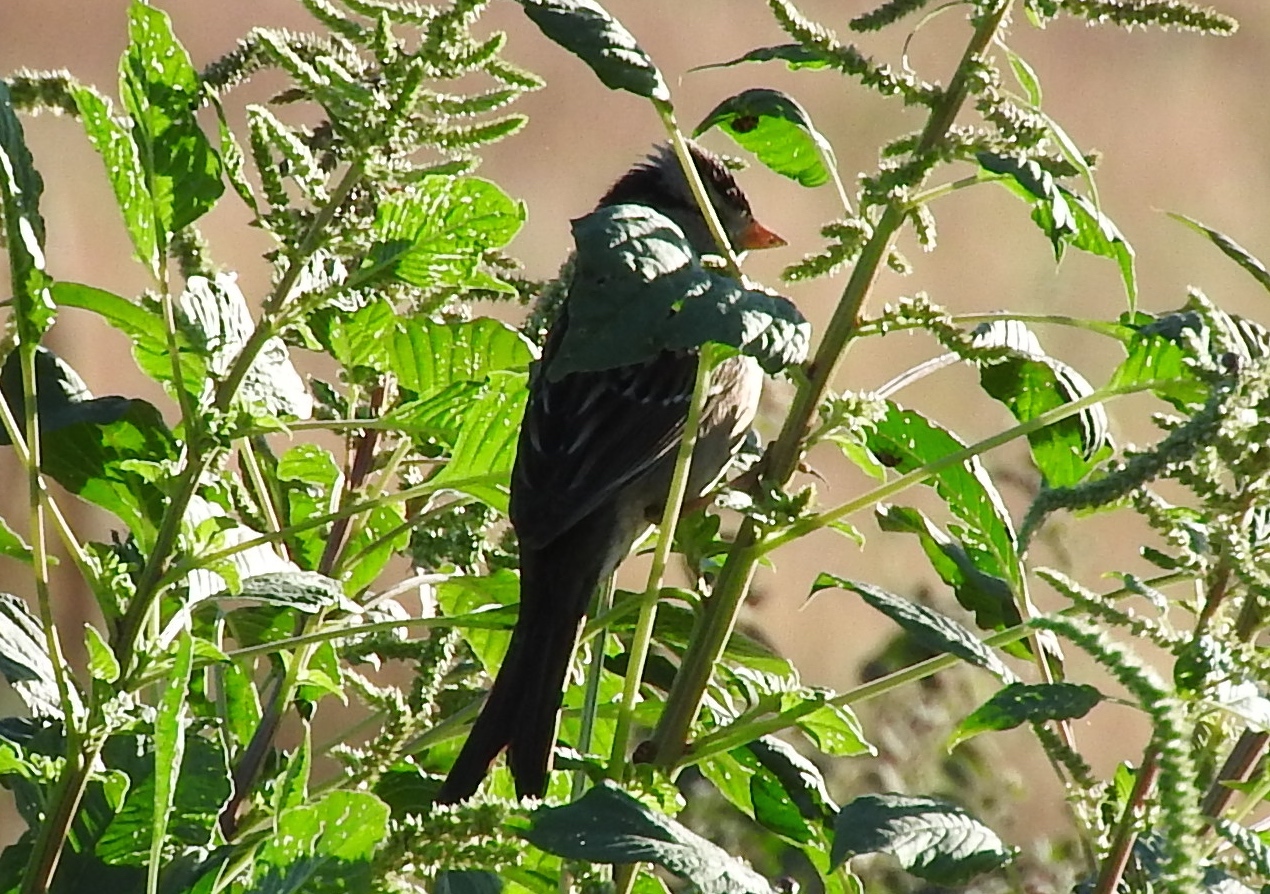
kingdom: Animalia
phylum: Chordata
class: Aves
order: Passeriformes
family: Passerellidae
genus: Zonotrichia
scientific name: Zonotrichia leucophrys
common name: White-crowned sparrow
